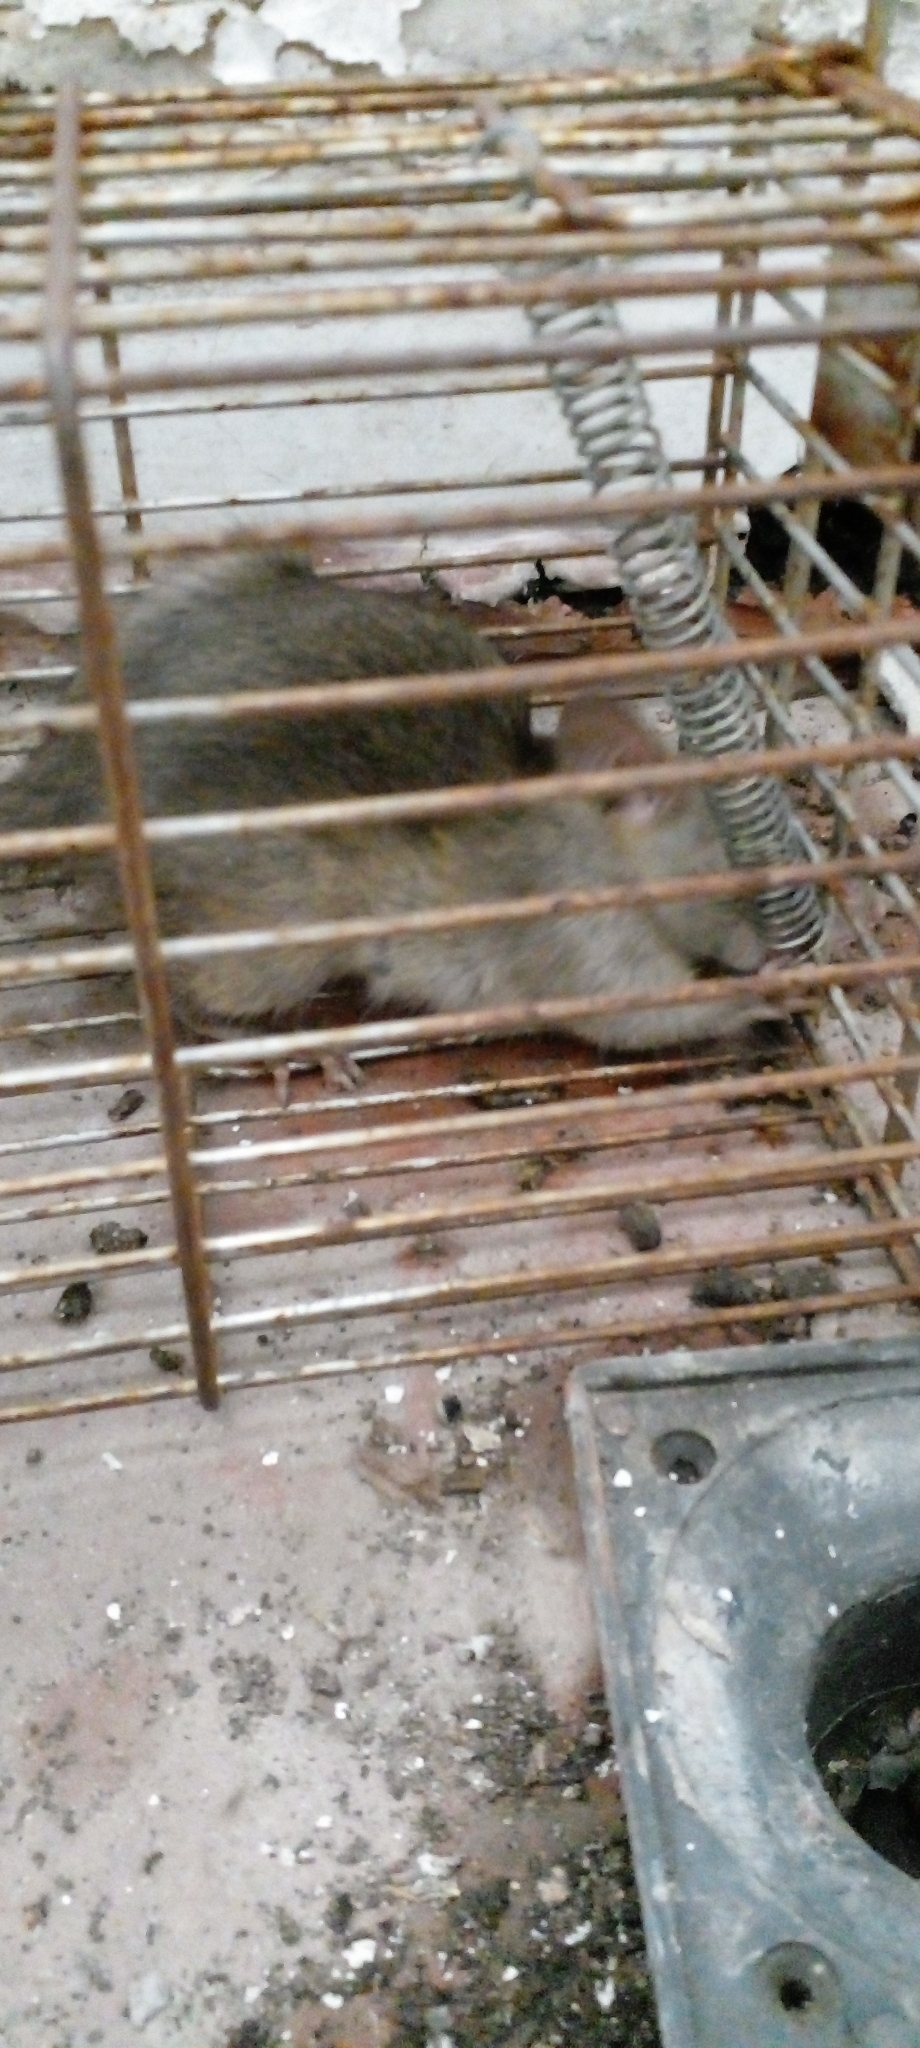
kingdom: Animalia
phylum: Chordata
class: Mammalia
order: Rodentia
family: Muridae
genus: Rattus
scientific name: Rattus rattus
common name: Black rat
